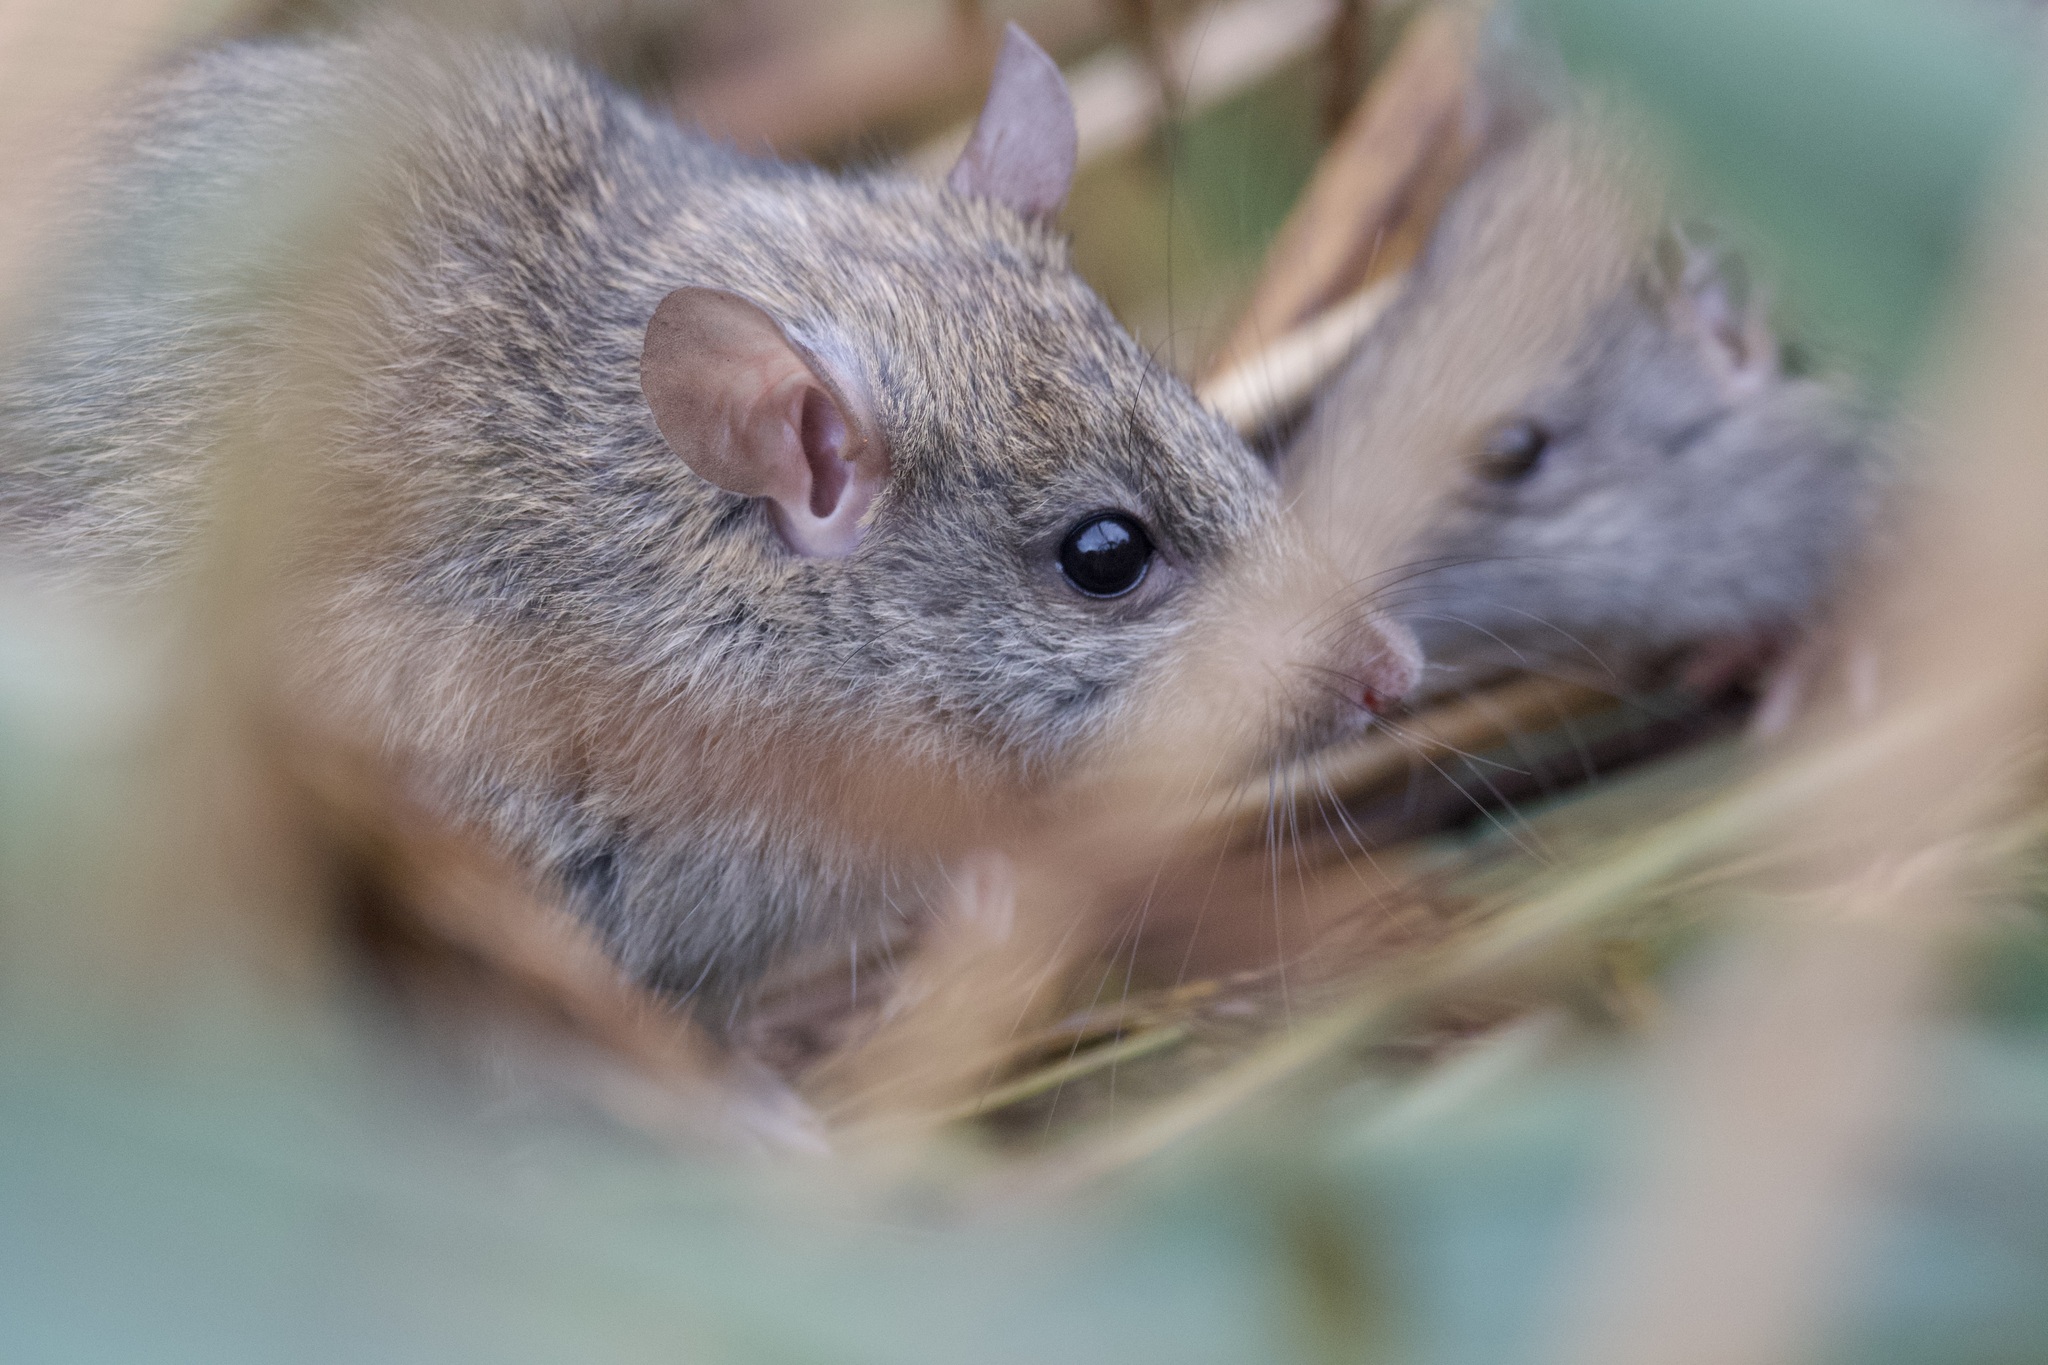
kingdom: Animalia
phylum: Chordata
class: Mammalia
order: Rodentia
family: Muridae
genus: Rattus
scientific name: Rattus rattus
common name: Black rat
